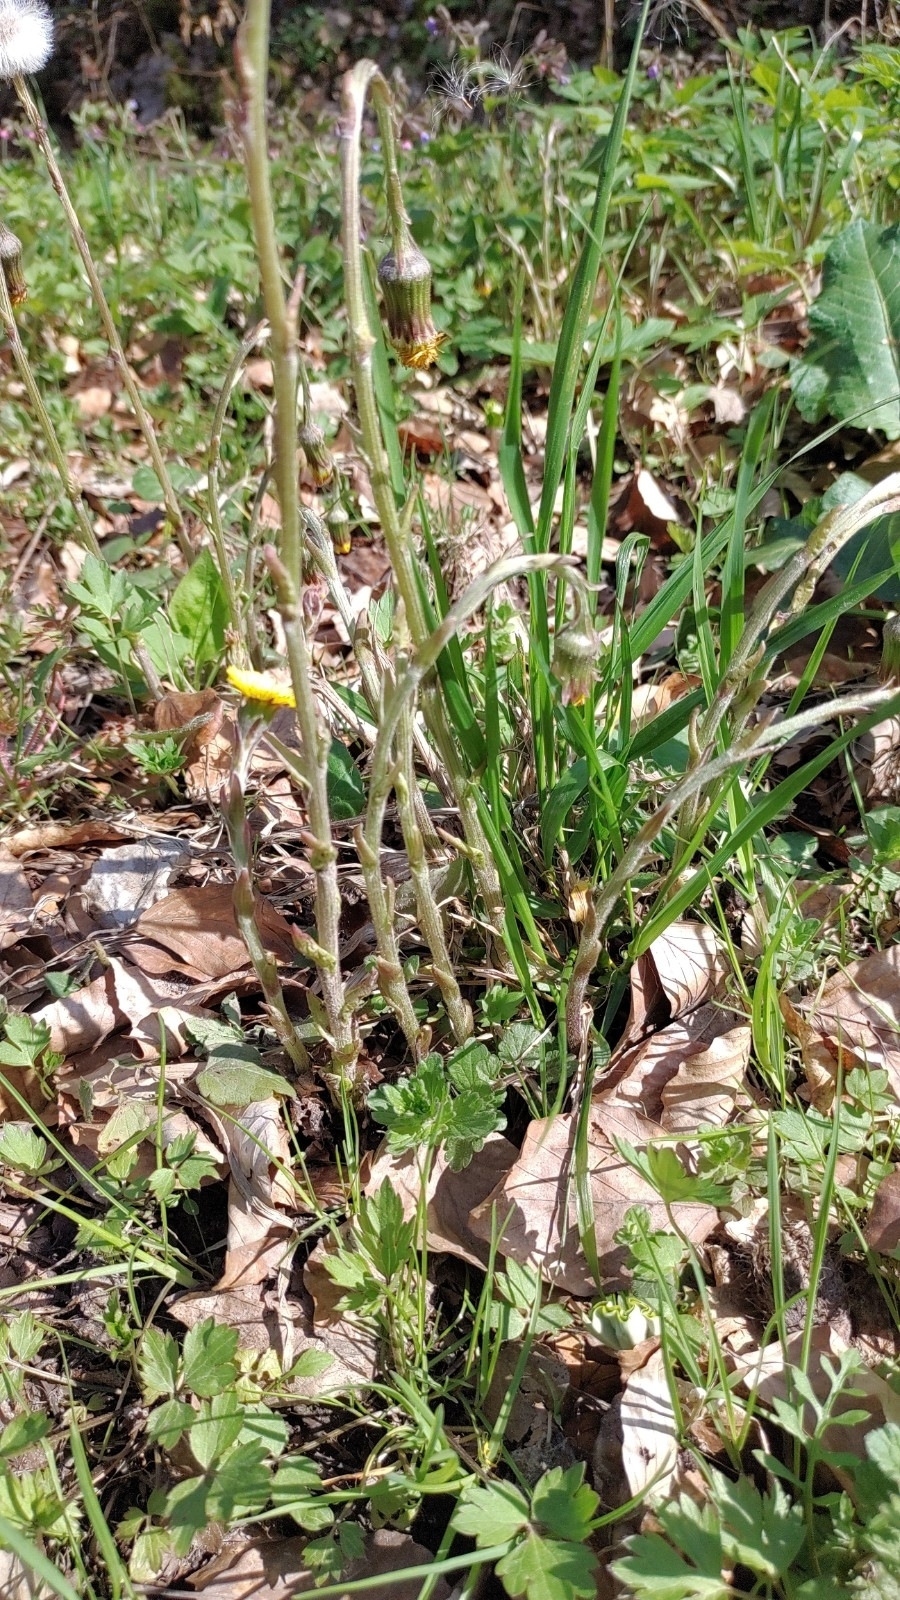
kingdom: Plantae
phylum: Tracheophyta
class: Magnoliopsida
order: Asterales
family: Asteraceae
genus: Tussilago
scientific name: Tussilago farfara
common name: Coltsfoot
